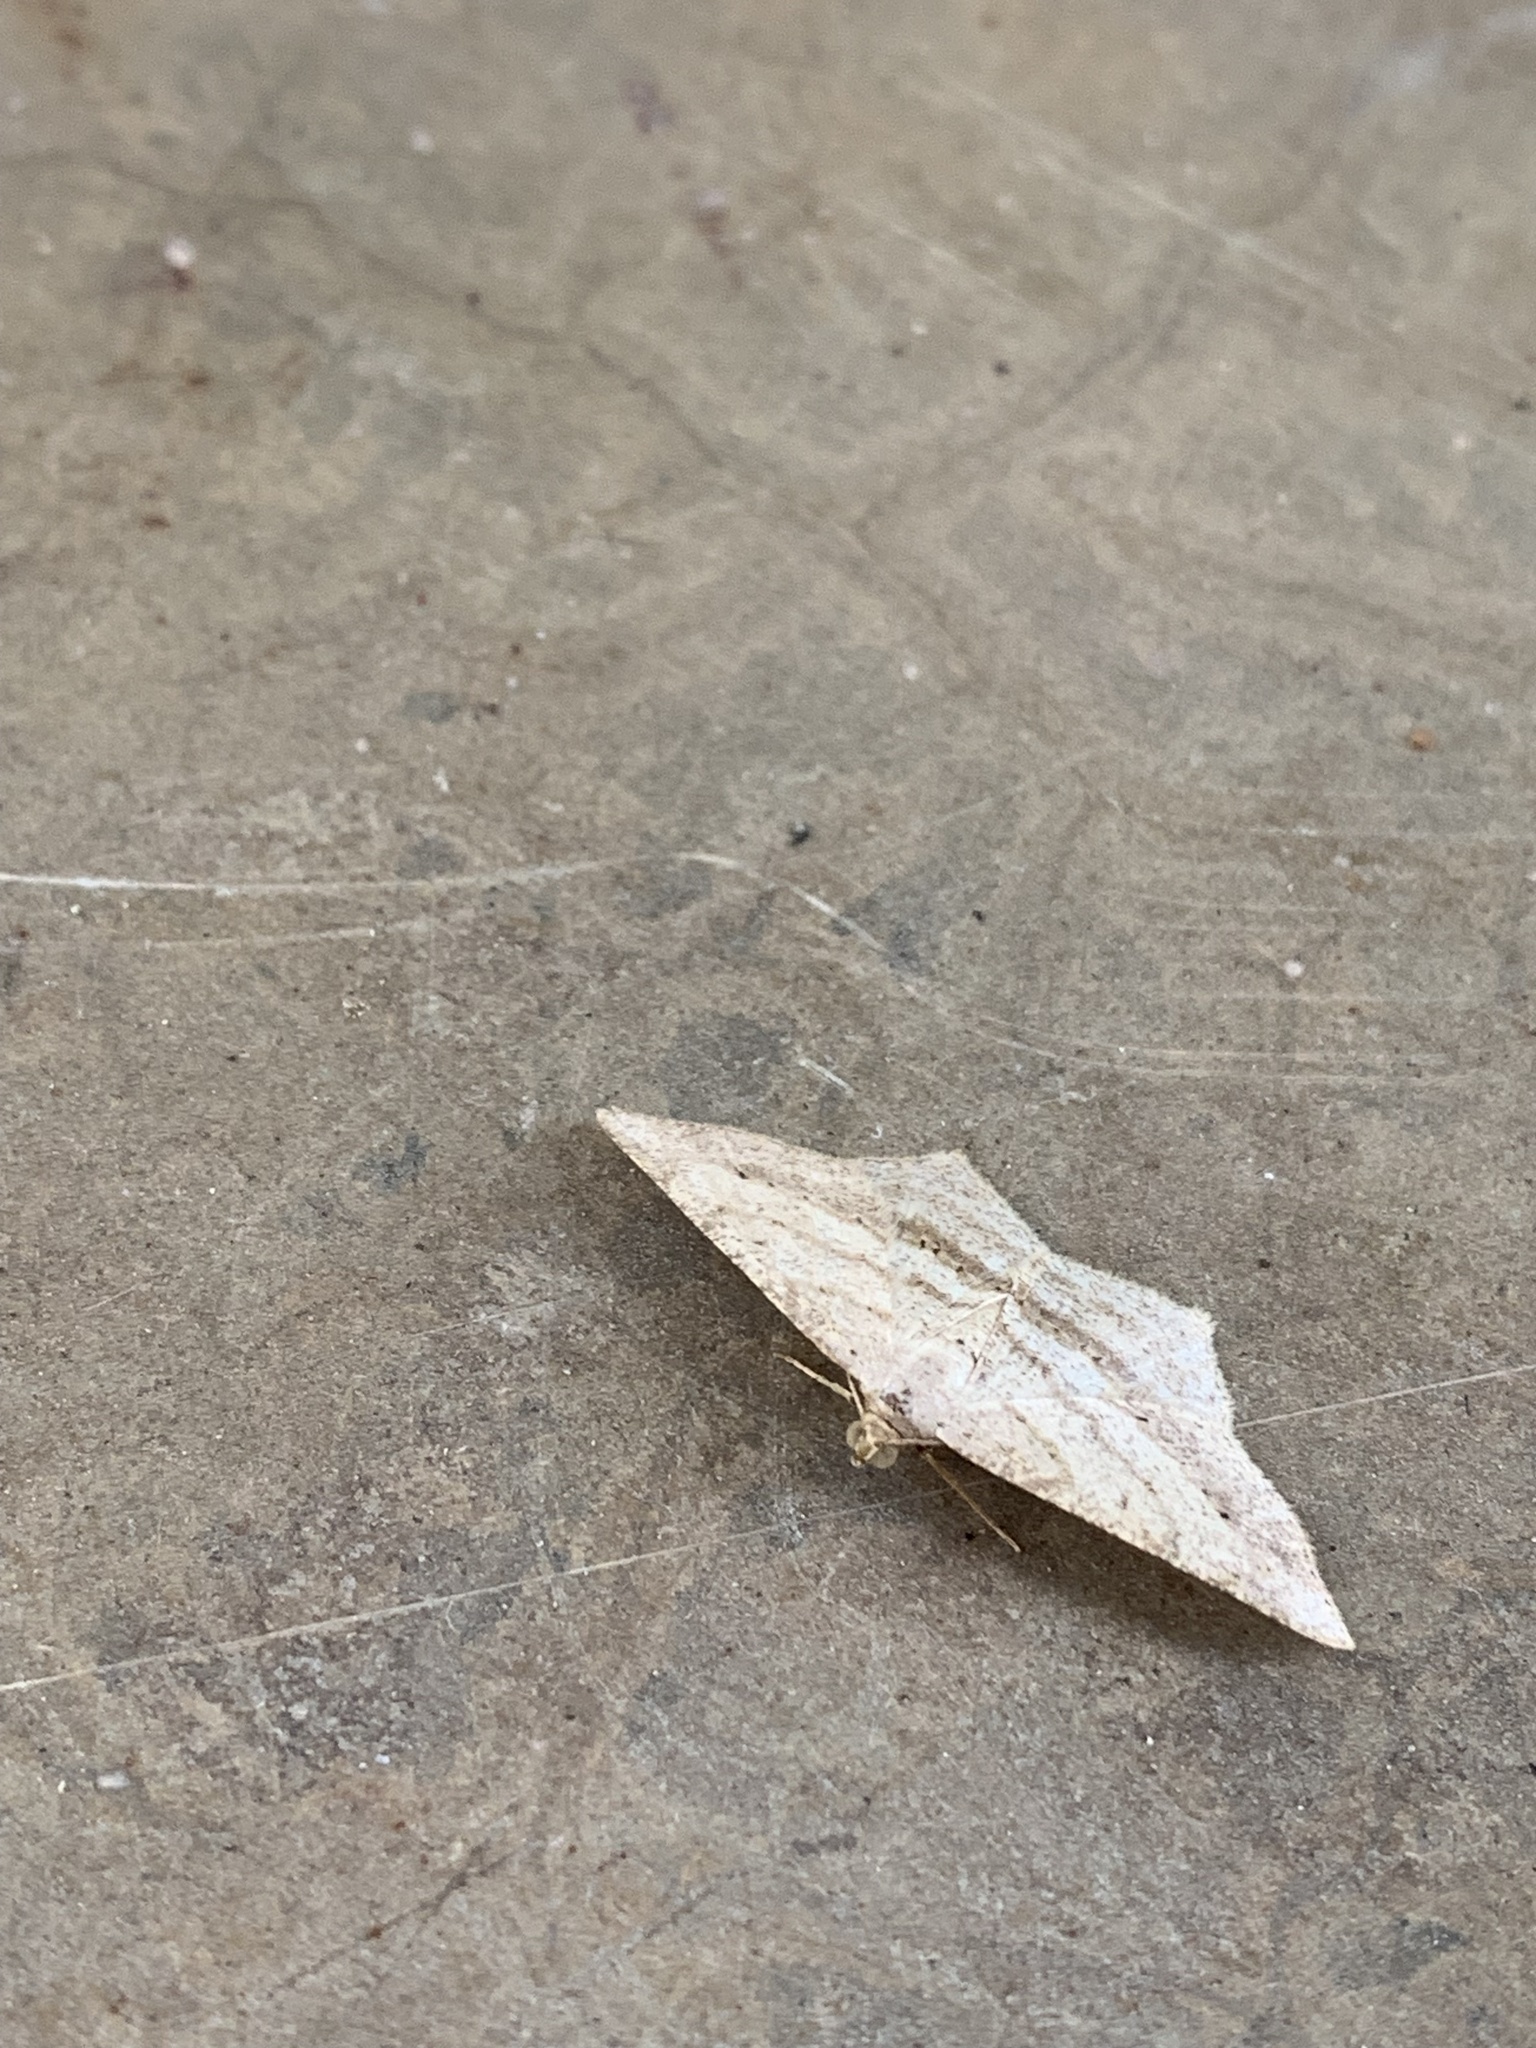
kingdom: Animalia
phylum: Arthropoda
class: Insecta
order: Lepidoptera
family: Geometridae
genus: Macaria
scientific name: Macaria abydata
